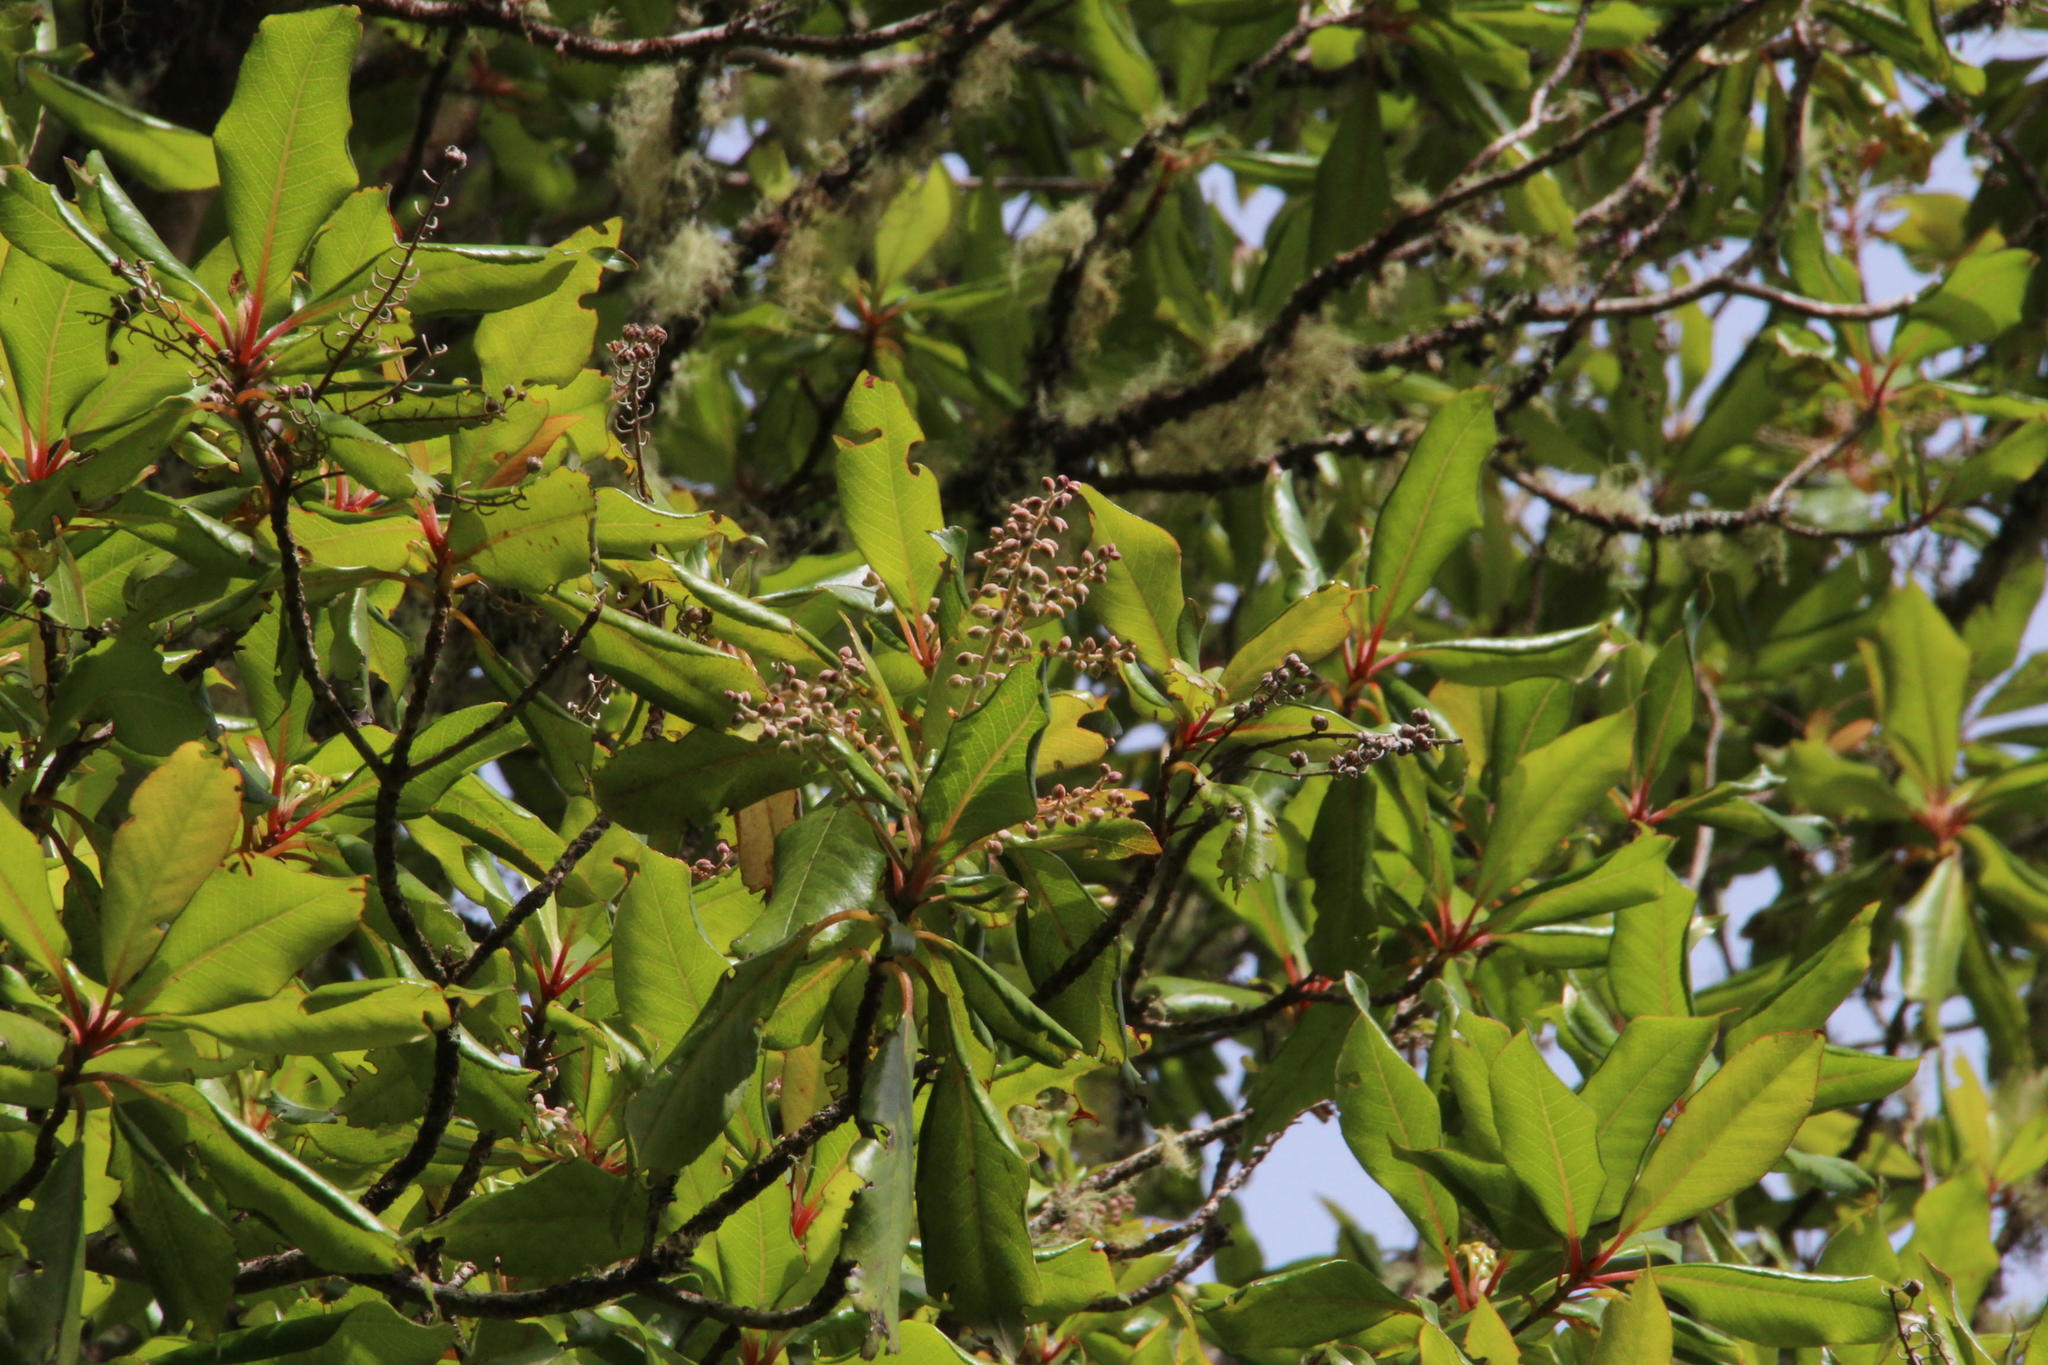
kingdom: Plantae
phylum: Tracheophyta
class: Magnoliopsida
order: Ericales
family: Clethraceae
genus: Clethra
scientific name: Clethra arborea
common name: Lily-of-the-valley-tree
